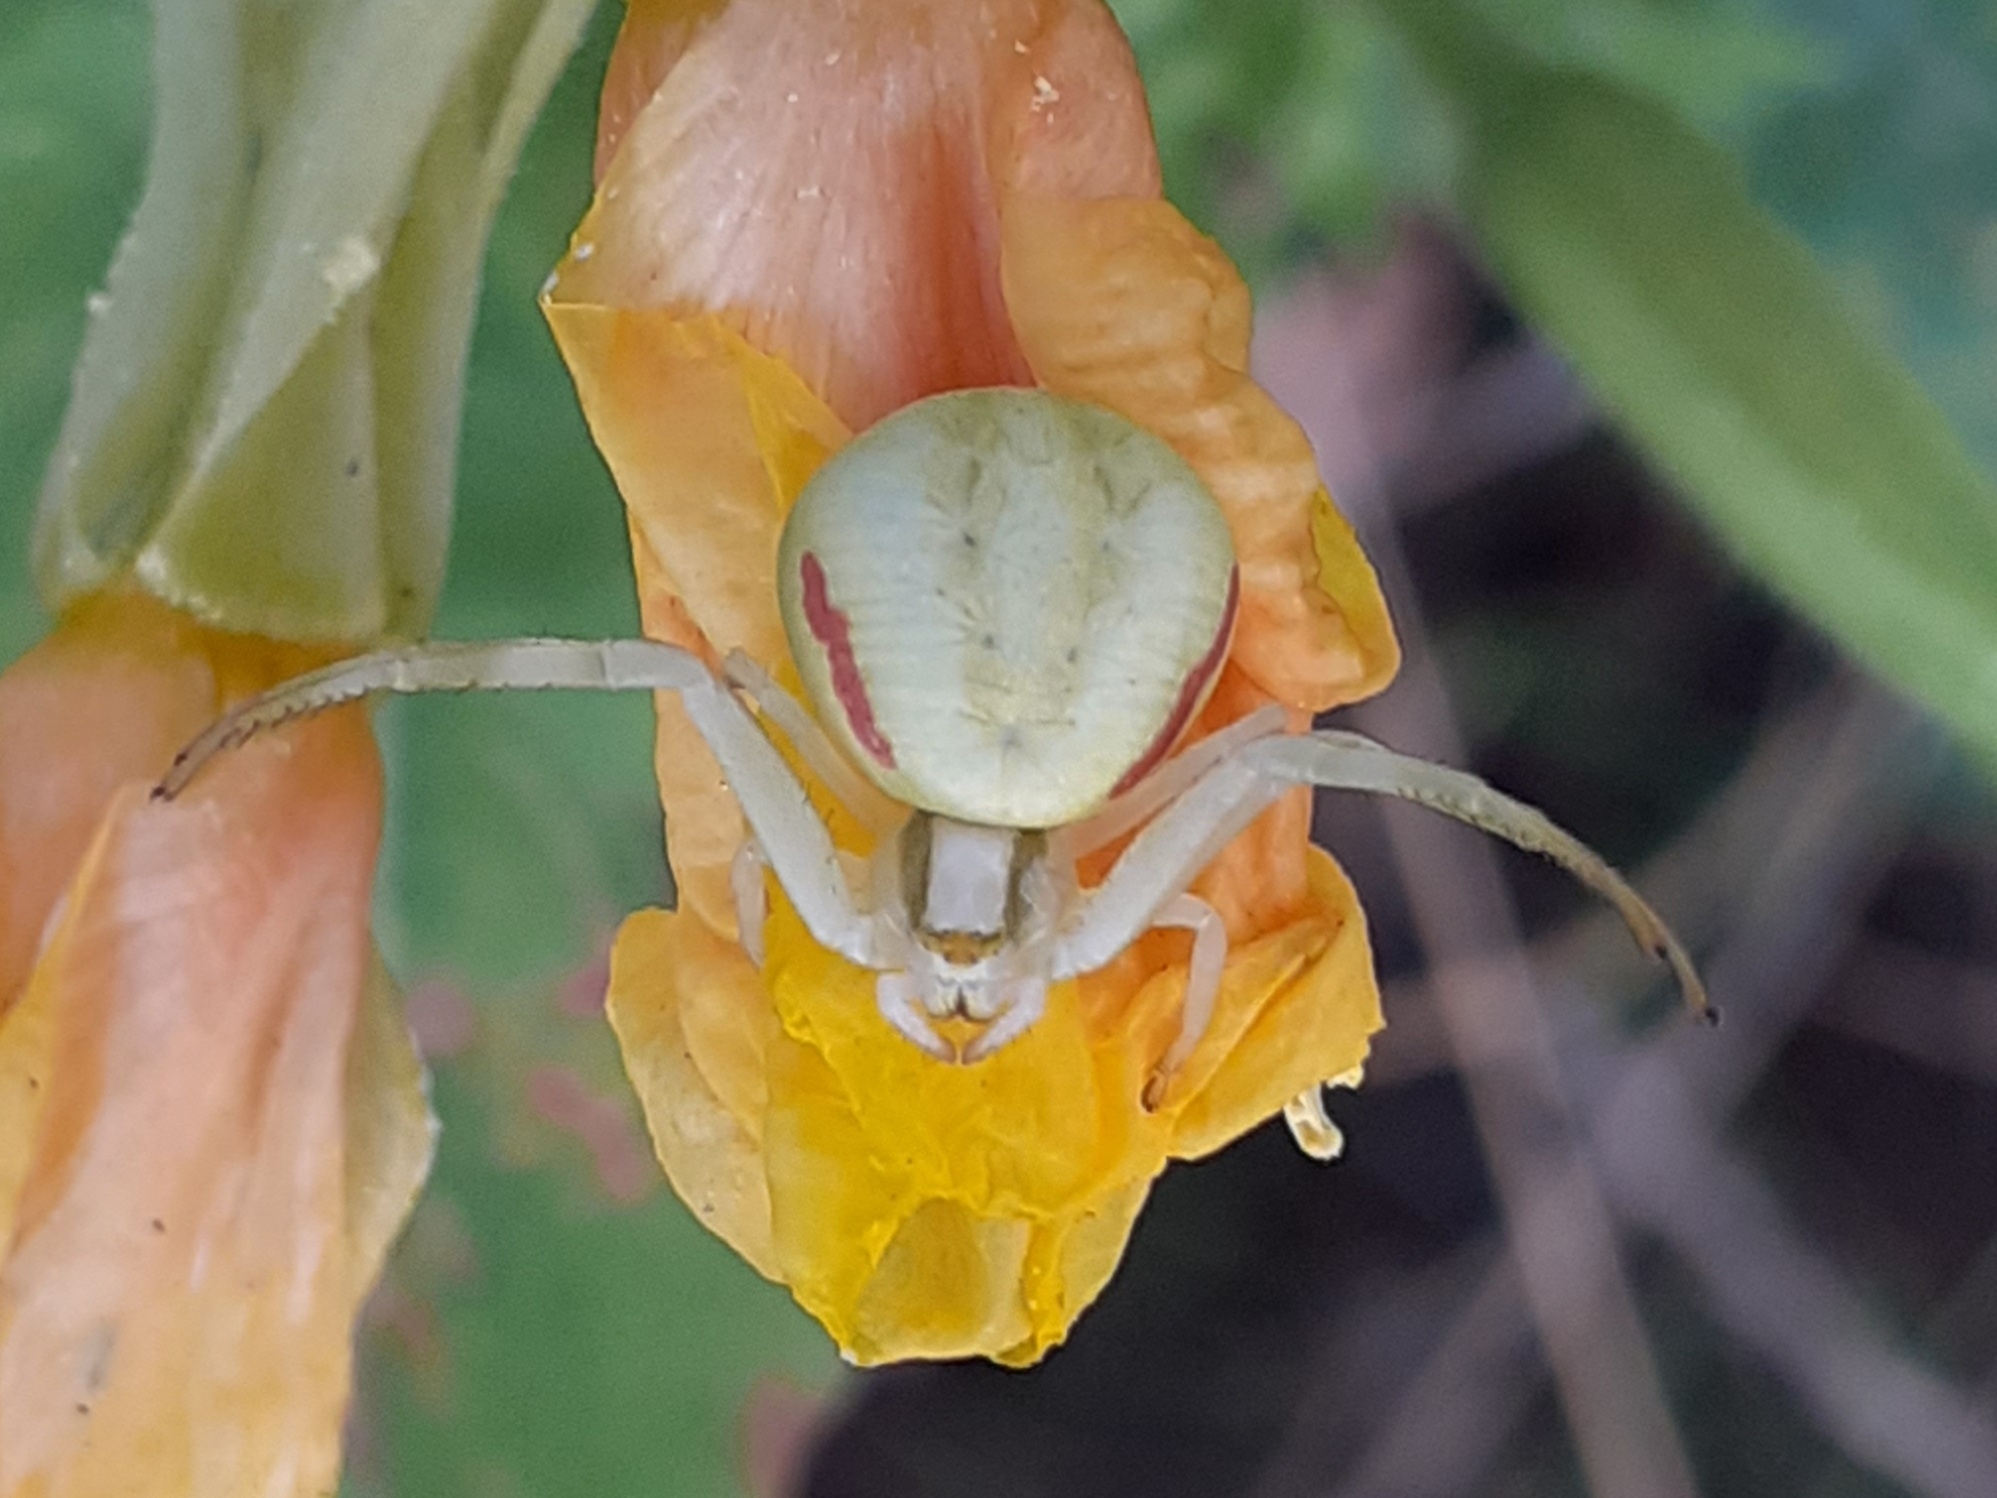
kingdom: Animalia
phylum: Arthropoda
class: Arachnida
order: Araneae
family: Thomisidae
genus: Misumena
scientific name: Misumena vatia
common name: Goldenrod crab spider
